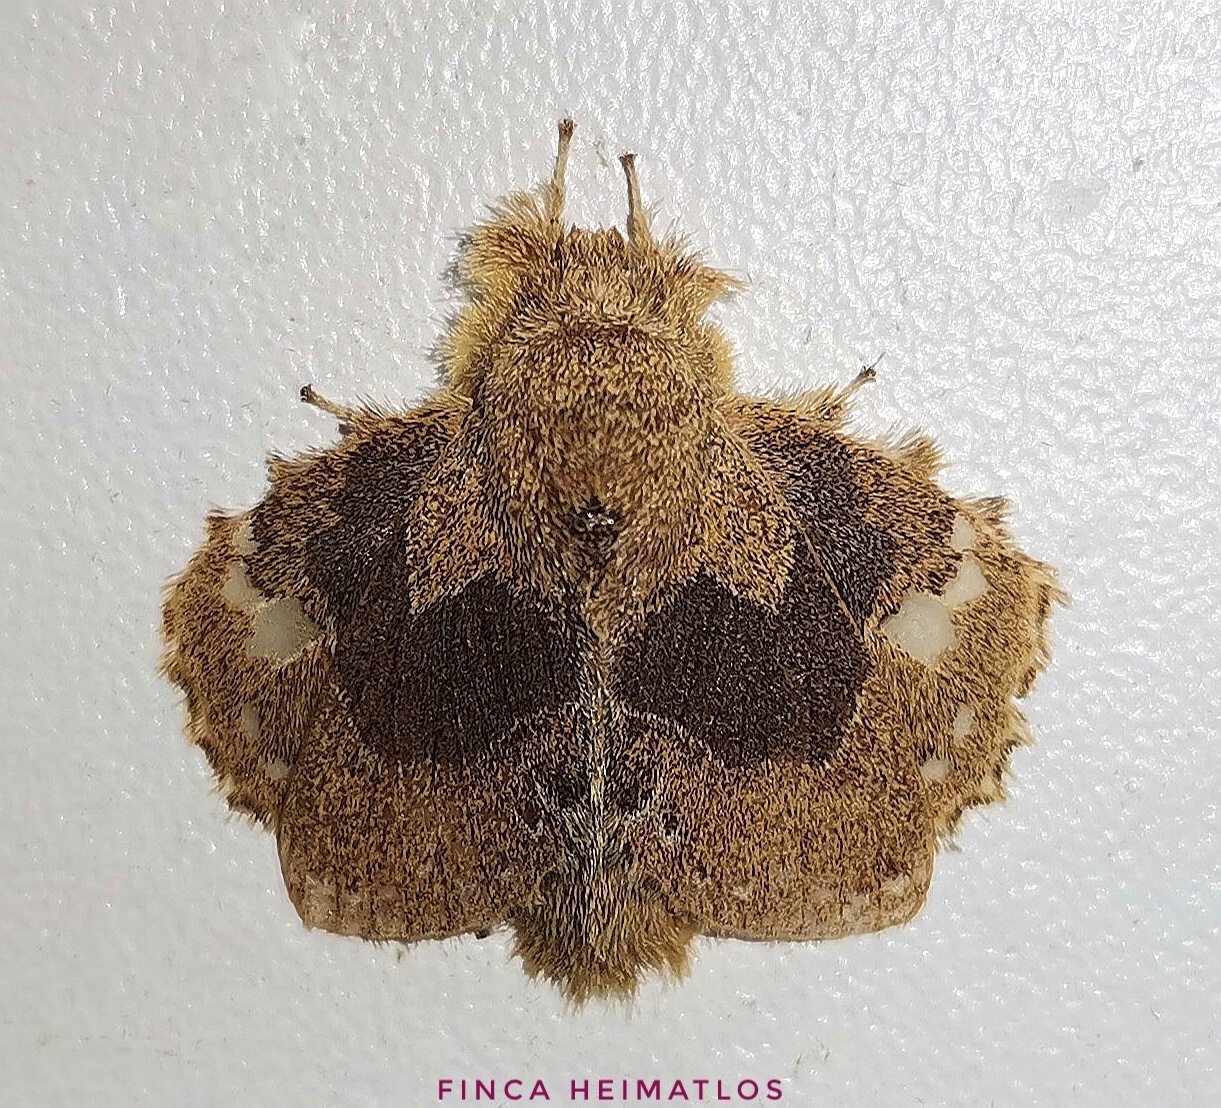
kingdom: Animalia
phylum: Arthropoda
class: Insecta
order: Lepidoptera
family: Lasiocampidae
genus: Euglyphis
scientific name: Euglyphis vitripuncta
